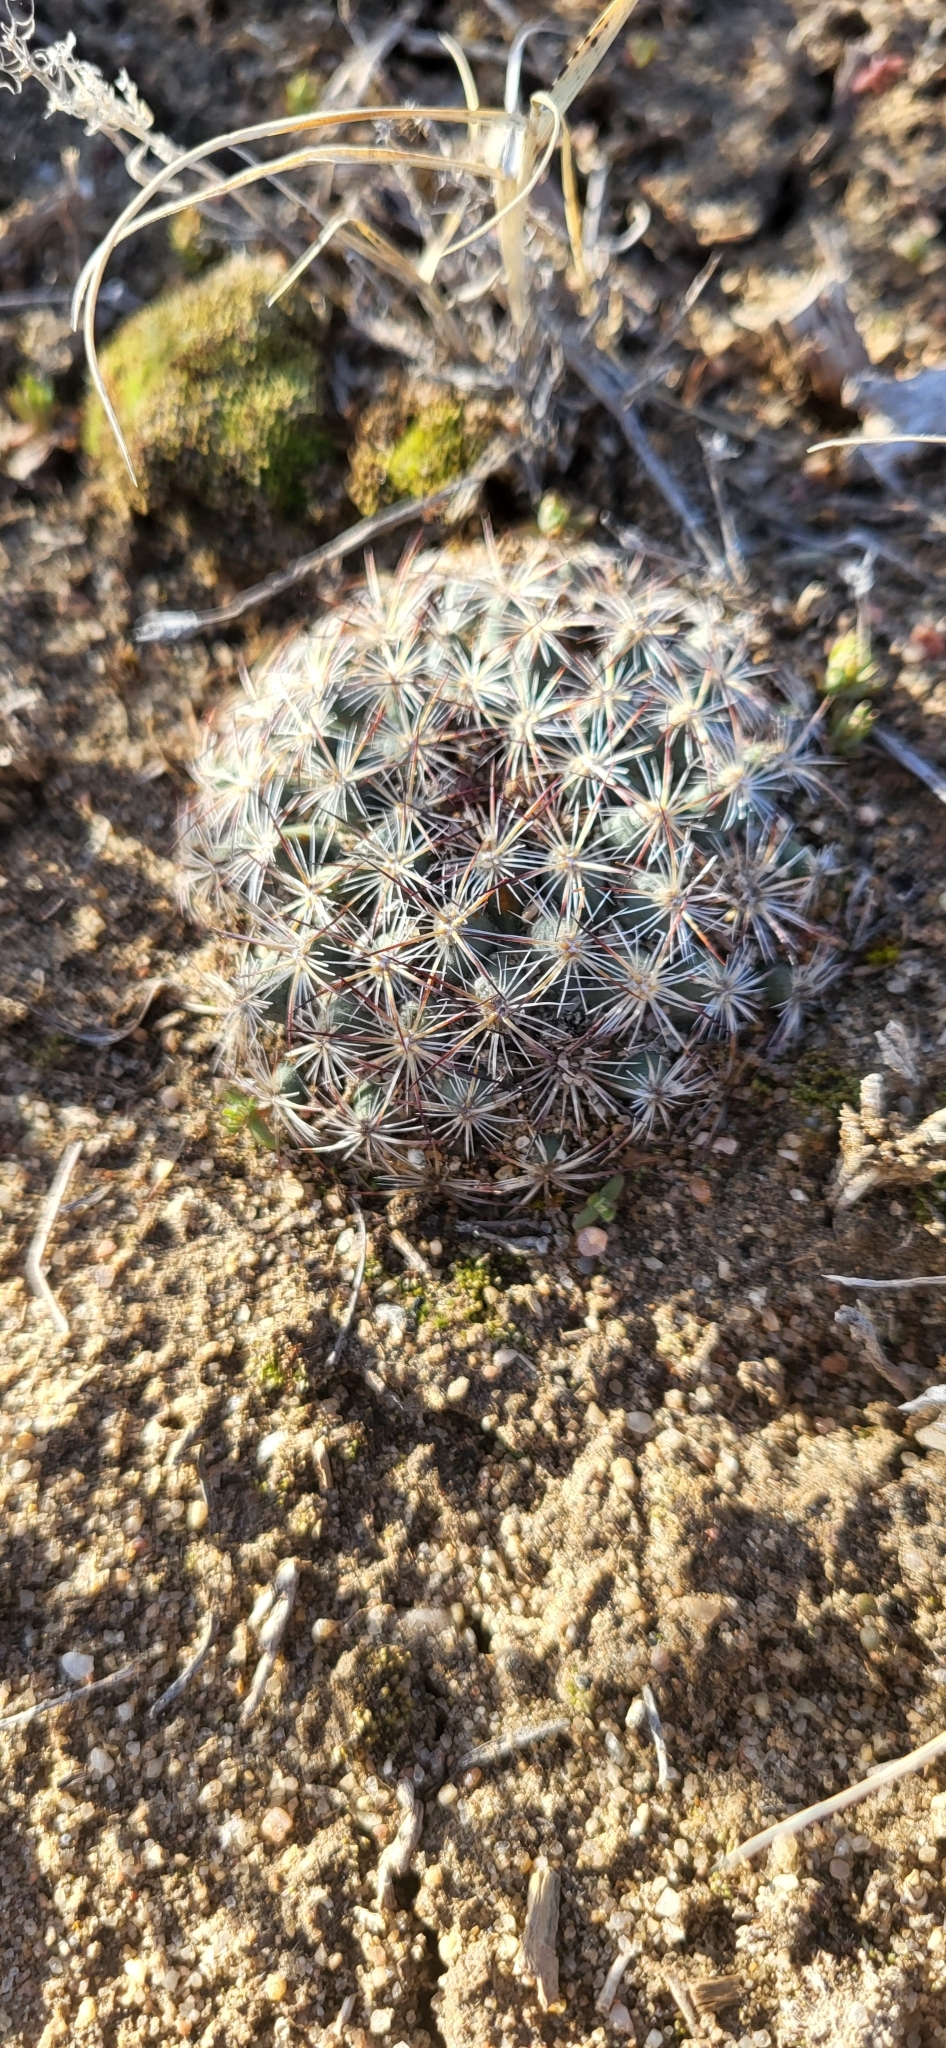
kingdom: Plantae
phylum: Tracheophyta
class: Magnoliopsida
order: Caryophyllales
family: Cactaceae
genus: Pediocactus
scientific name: Pediocactus simpsonii
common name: Simpson's hedgehog cactus
